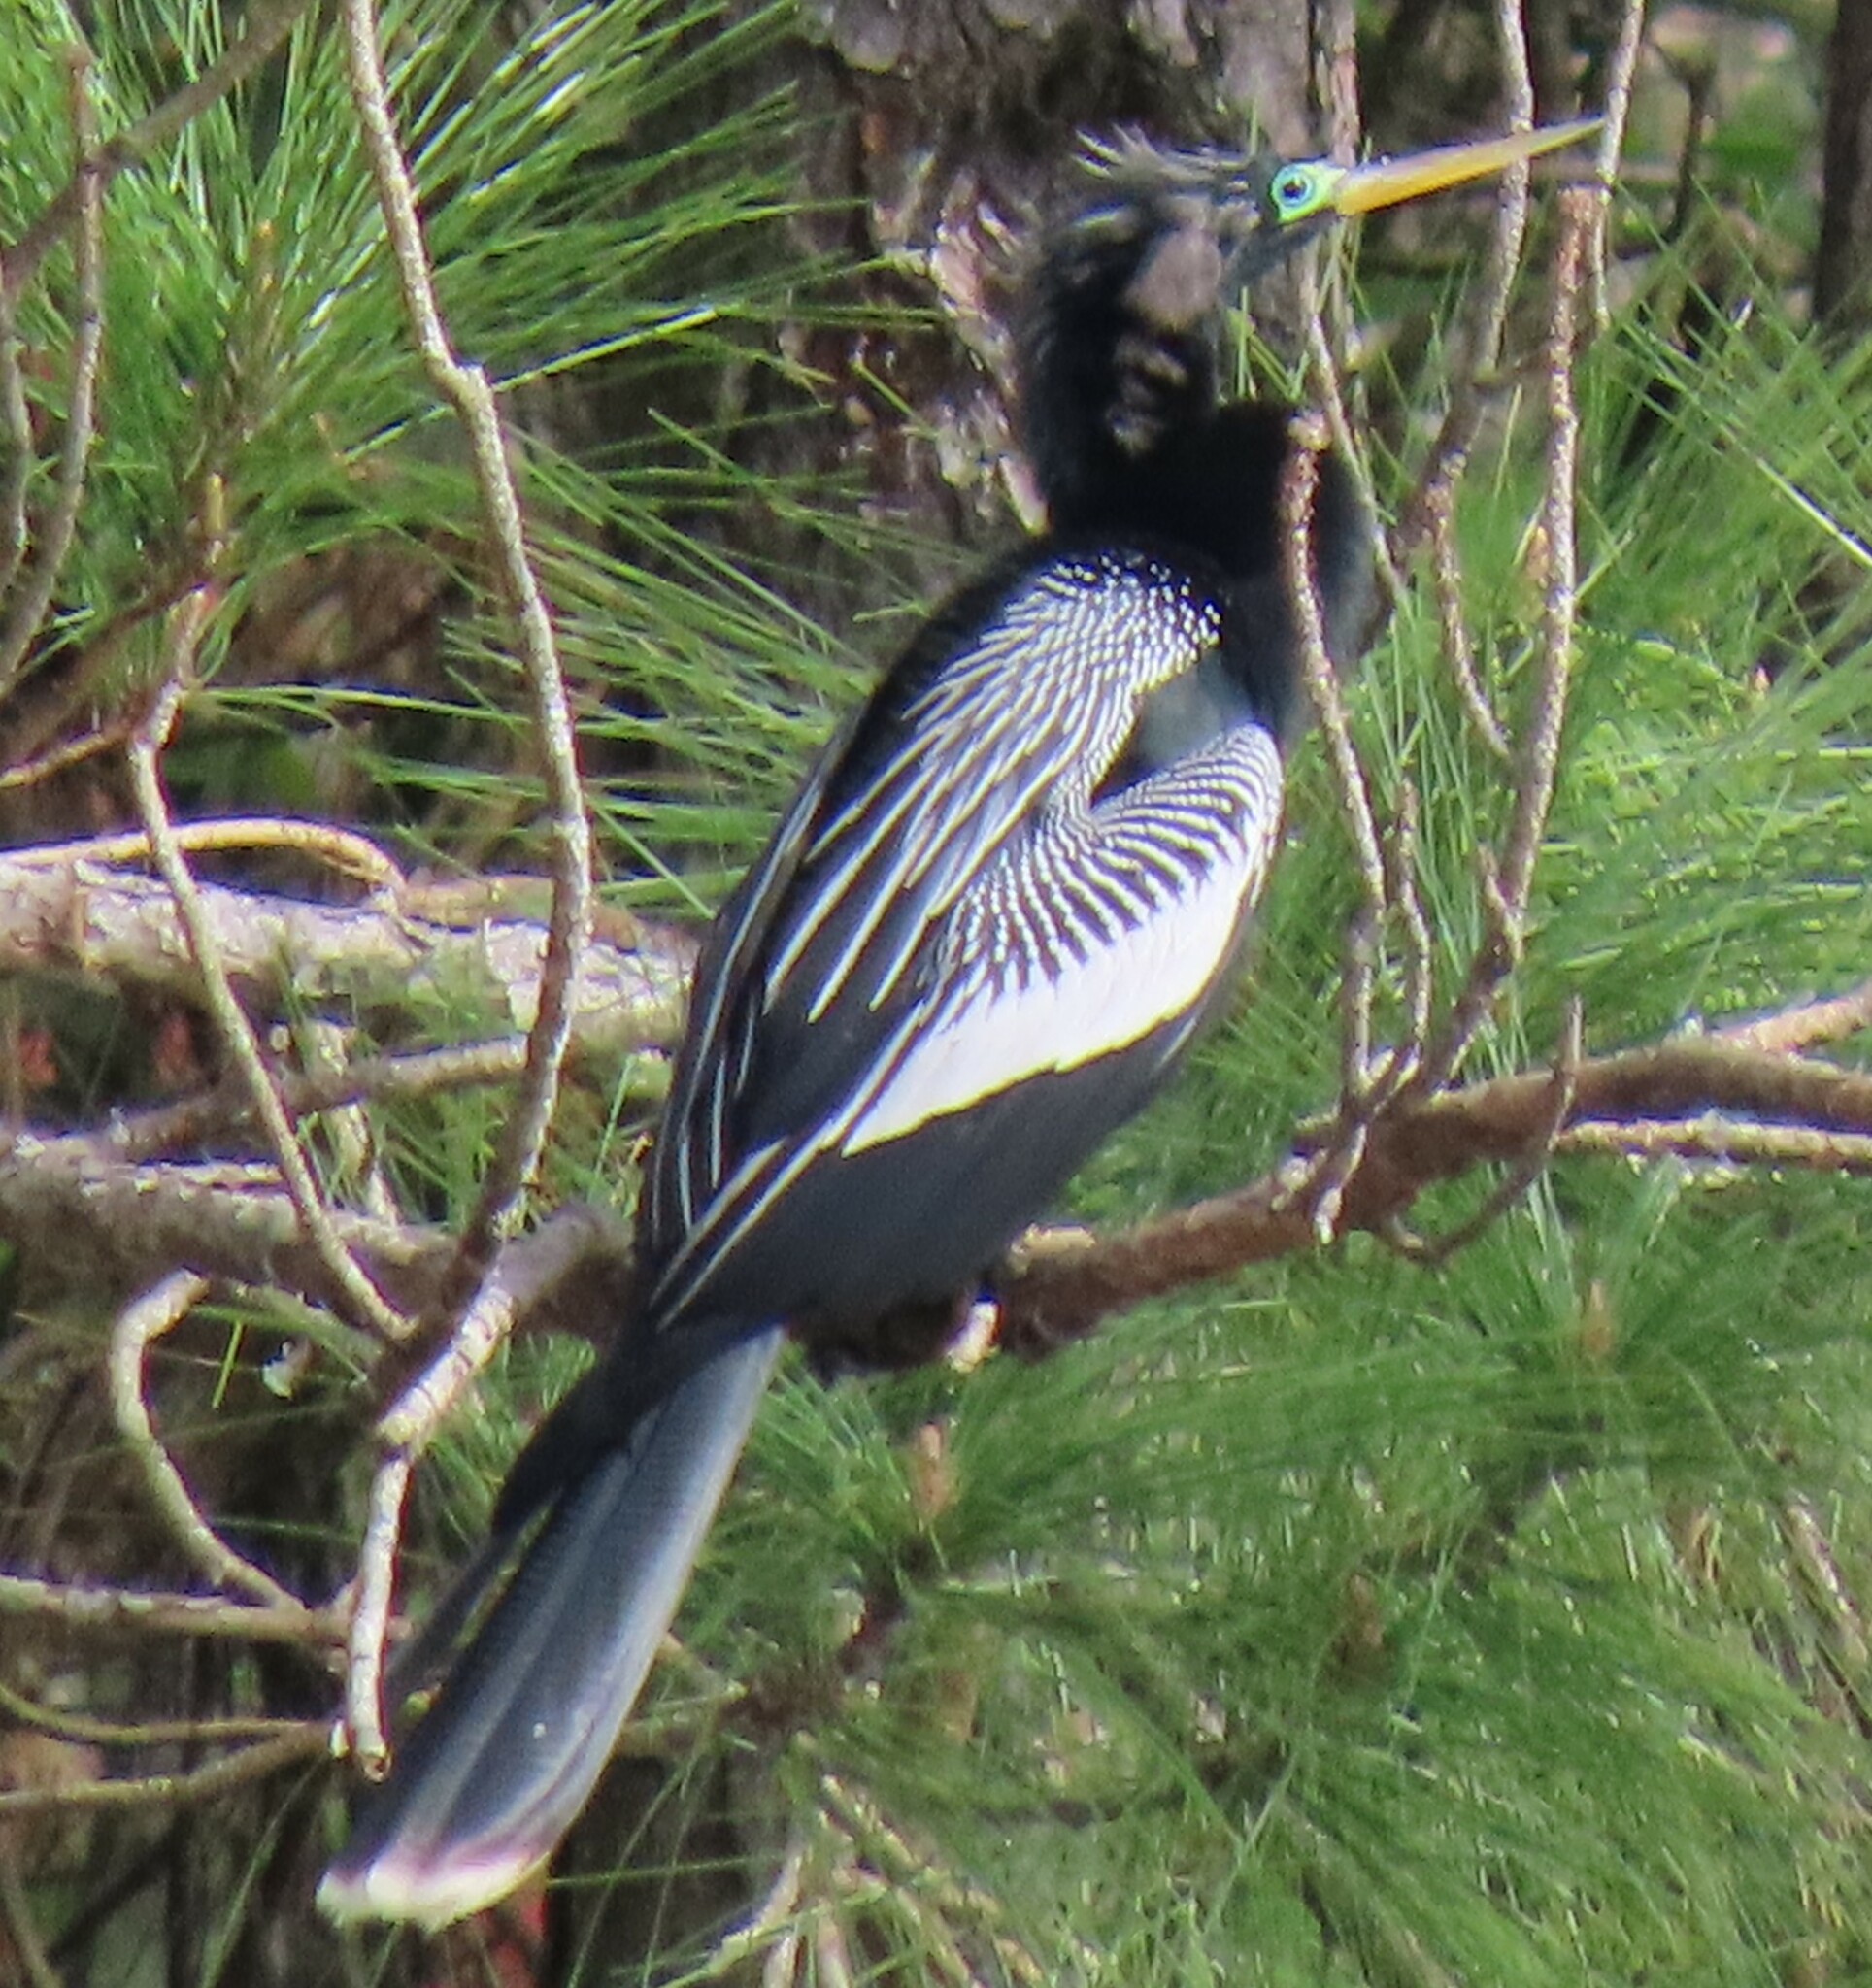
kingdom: Animalia
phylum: Chordata
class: Aves
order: Suliformes
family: Anhingidae
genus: Anhinga
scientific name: Anhinga anhinga
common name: Anhinga
